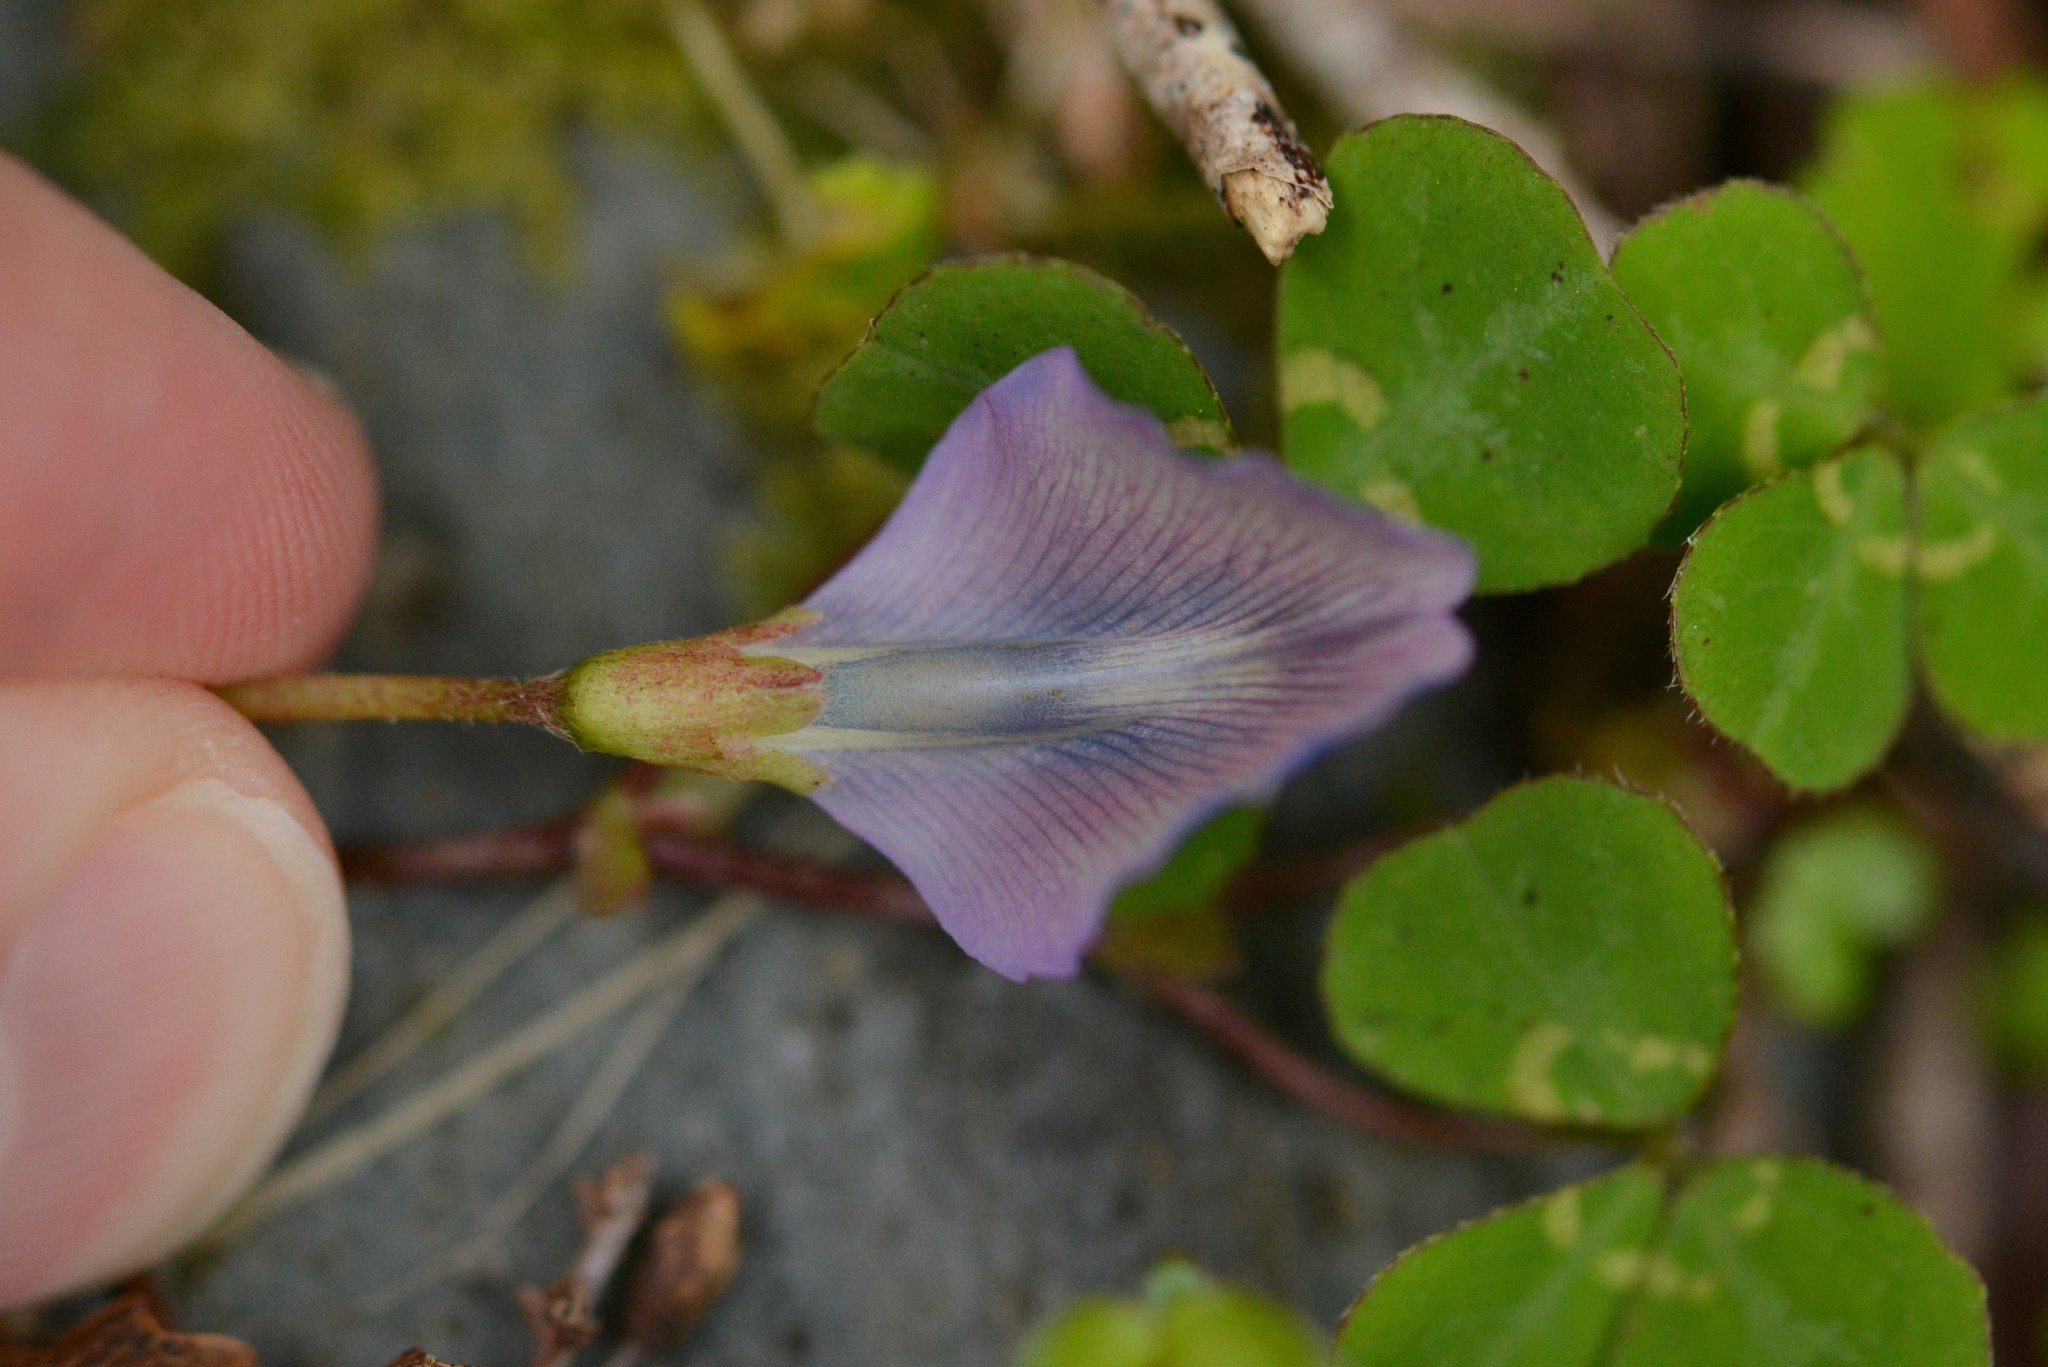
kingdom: Plantae
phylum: Tracheophyta
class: Magnoliopsida
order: Fabales
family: Fabaceae
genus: Parochetus
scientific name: Parochetus communis
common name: Blue oxalis
